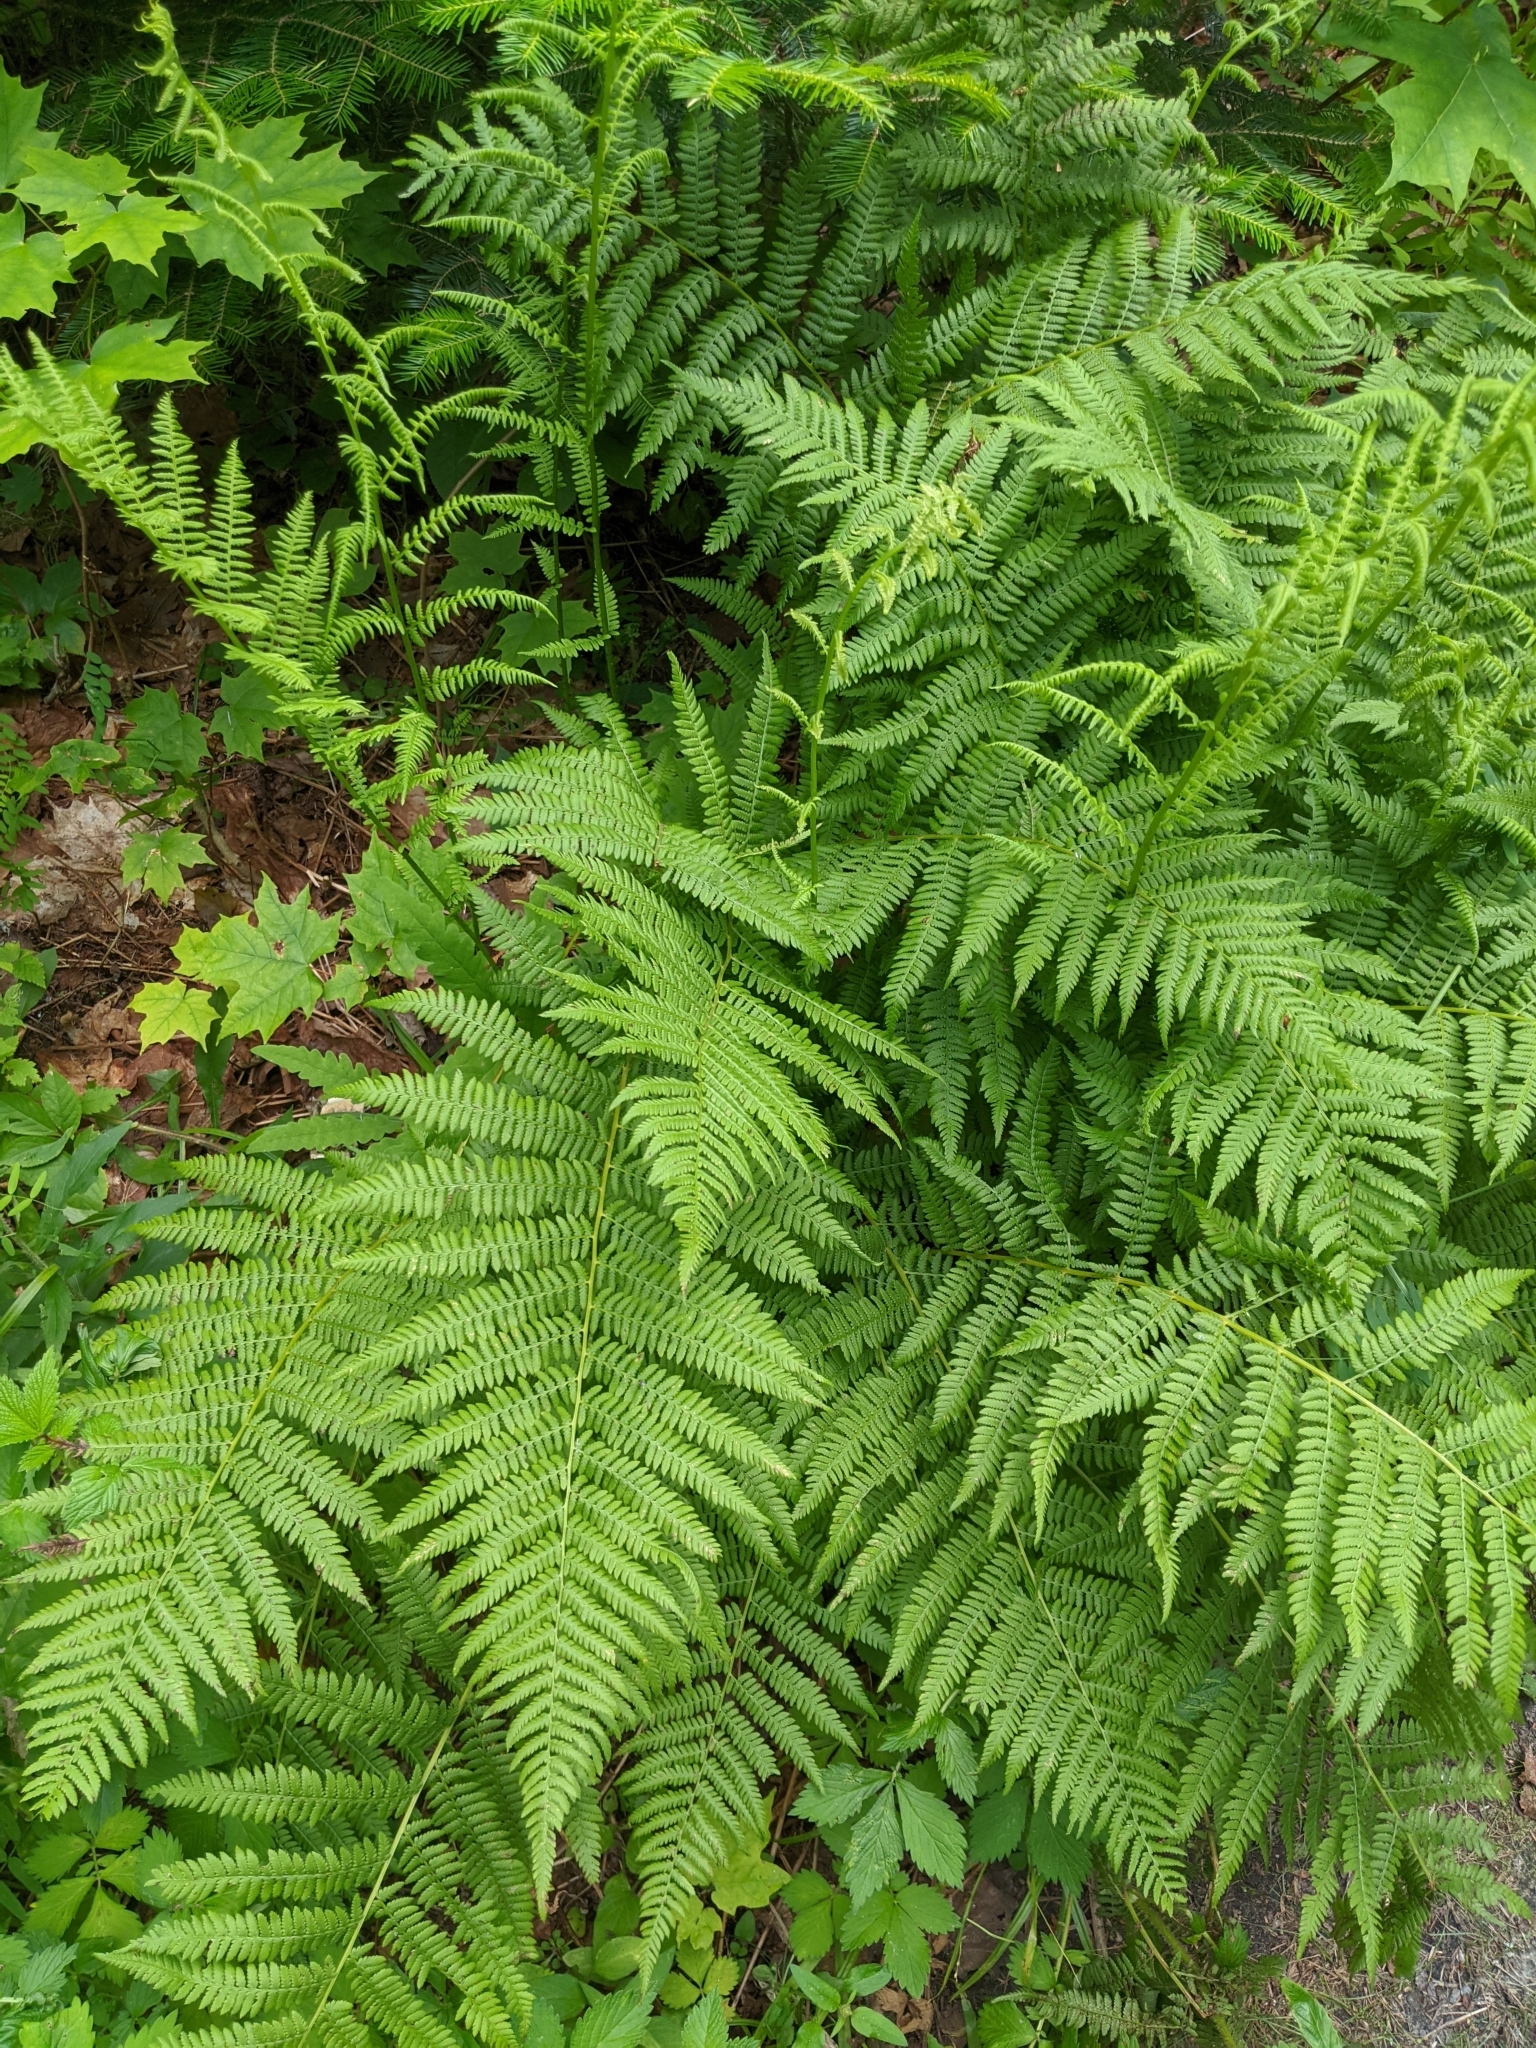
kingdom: Plantae
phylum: Tracheophyta
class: Polypodiopsida
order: Polypodiales
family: Athyriaceae
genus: Athyrium
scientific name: Athyrium angustum
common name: Northern lady fern
